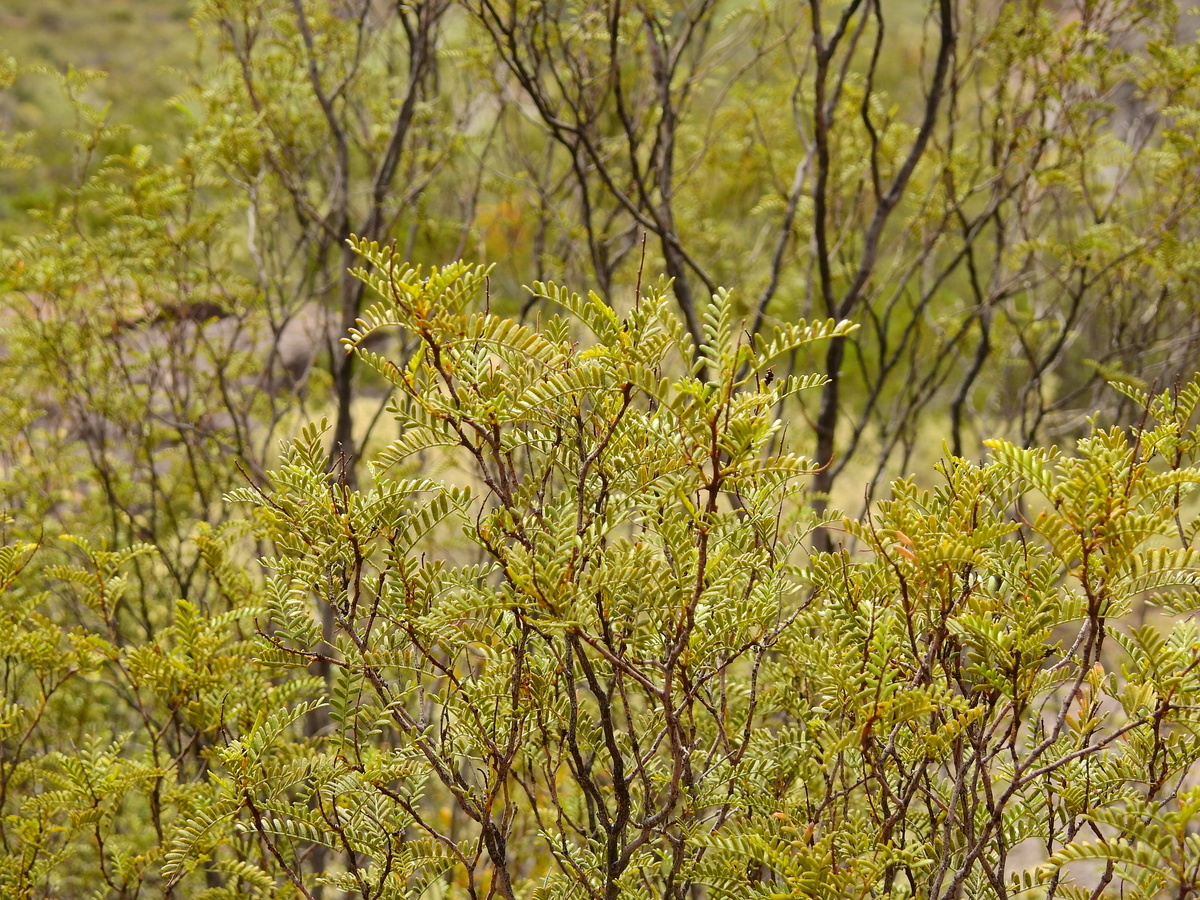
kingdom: Plantae
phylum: Tracheophyta
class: Magnoliopsida
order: Fabales
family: Fabaceae
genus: Zuccagnia
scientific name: Zuccagnia punctata
